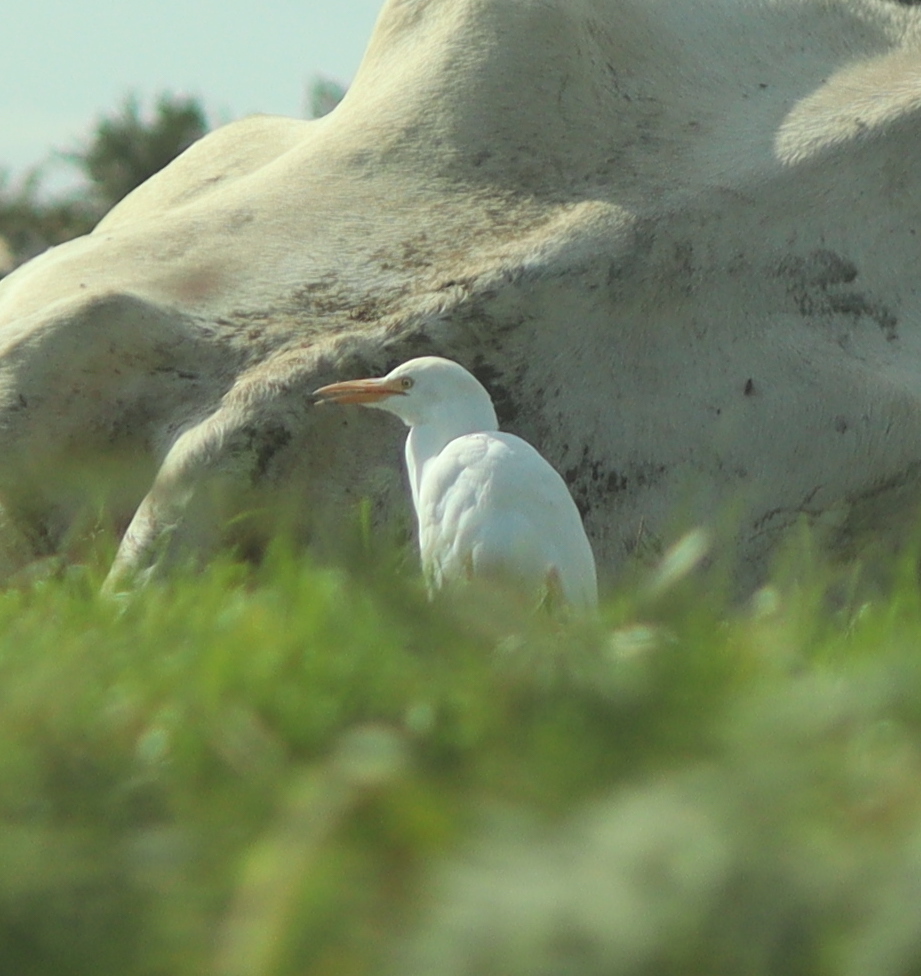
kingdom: Animalia
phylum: Chordata
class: Aves
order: Pelecaniformes
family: Ardeidae
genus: Bubulcus
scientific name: Bubulcus ibis
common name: Cattle egret
